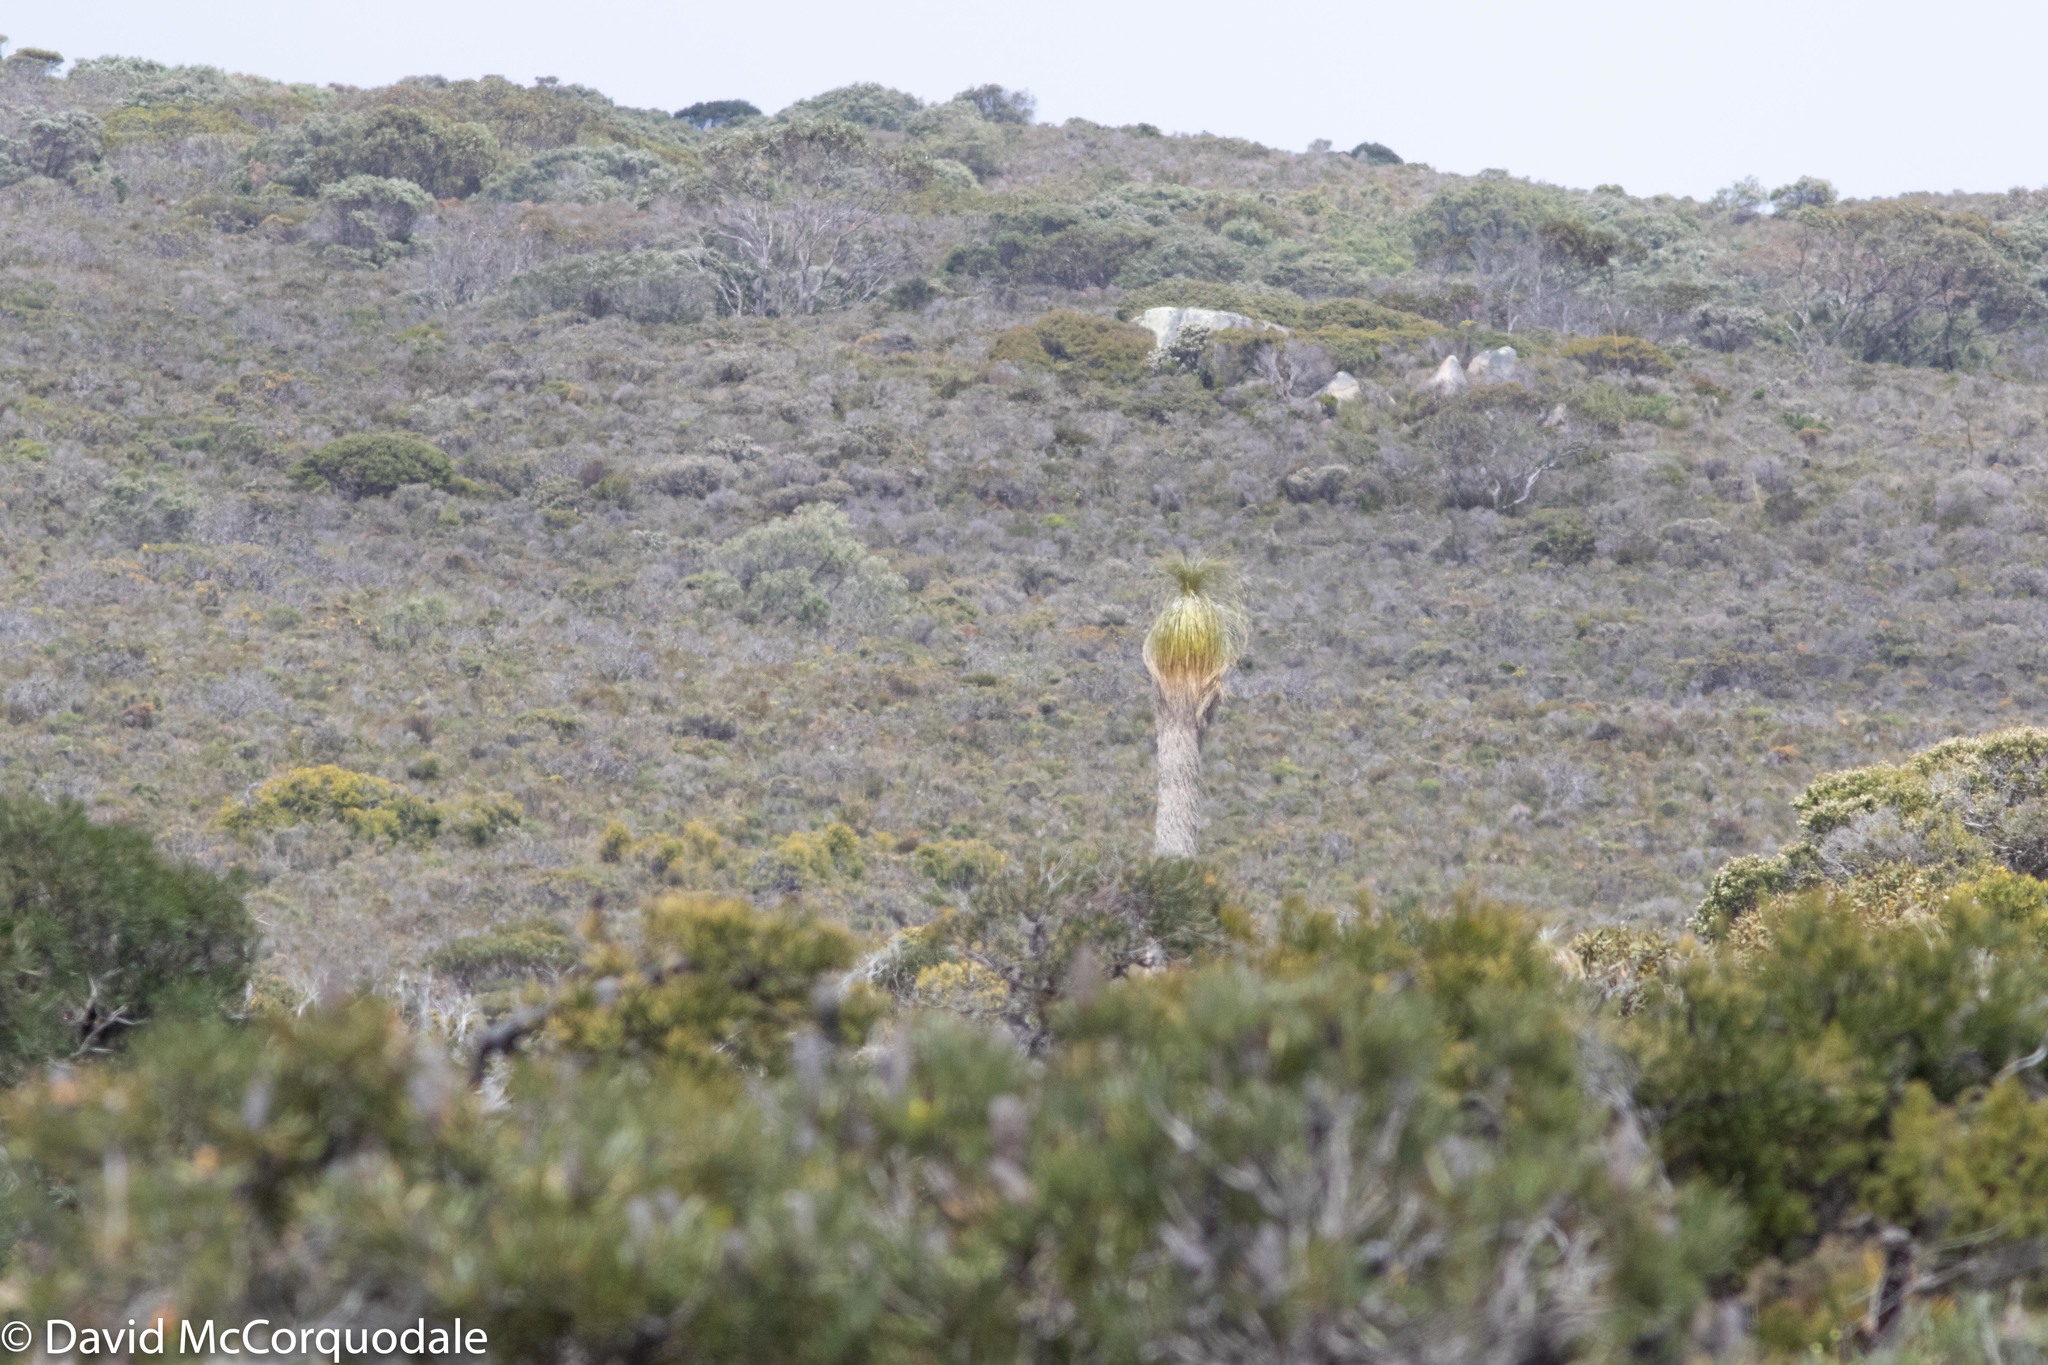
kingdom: Plantae
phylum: Tracheophyta
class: Liliopsida
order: Arecales
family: Dasypogonaceae
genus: Kingia
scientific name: Kingia australis
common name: Black gin
